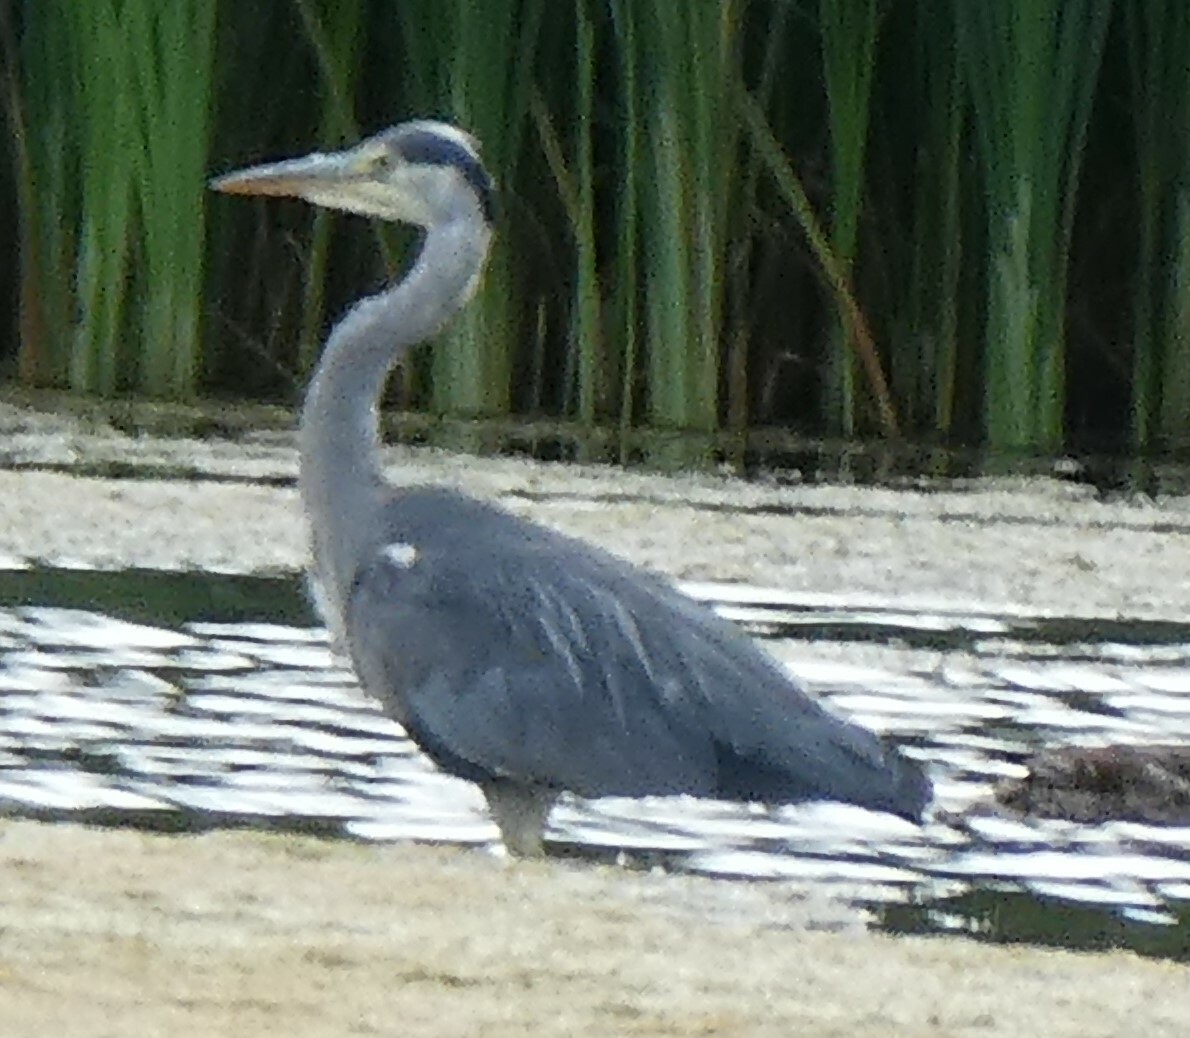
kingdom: Animalia
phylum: Chordata
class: Aves
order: Pelecaniformes
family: Ardeidae
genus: Ardea
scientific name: Ardea cinerea
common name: Grey heron
